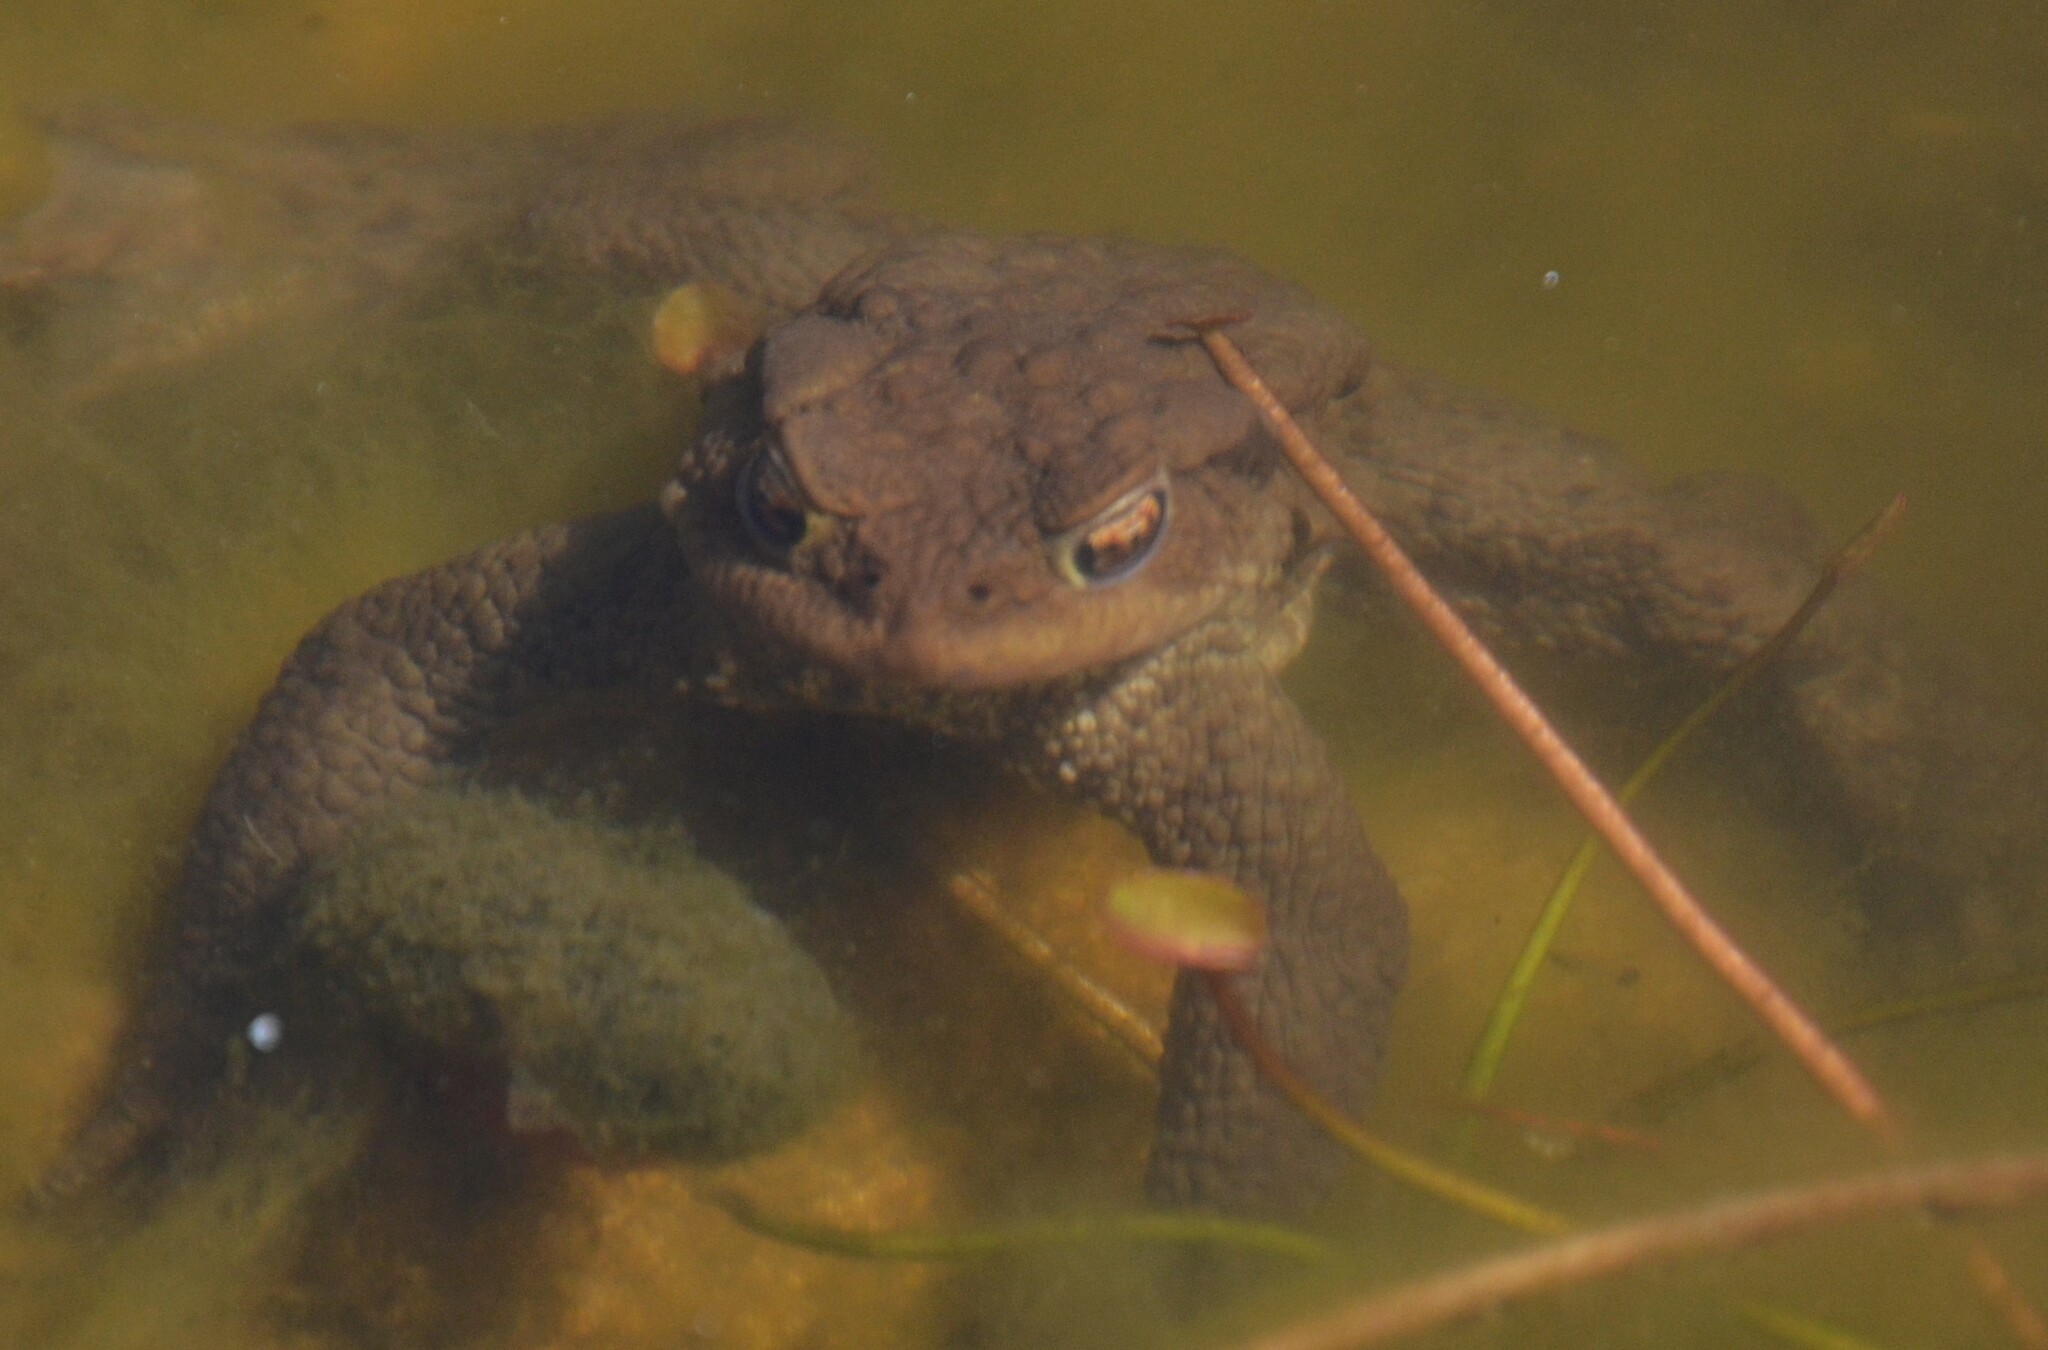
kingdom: Animalia
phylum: Chordata
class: Amphibia
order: Anura
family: Bufonidae
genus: Bufo
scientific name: Bufo bufo
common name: Common toad
